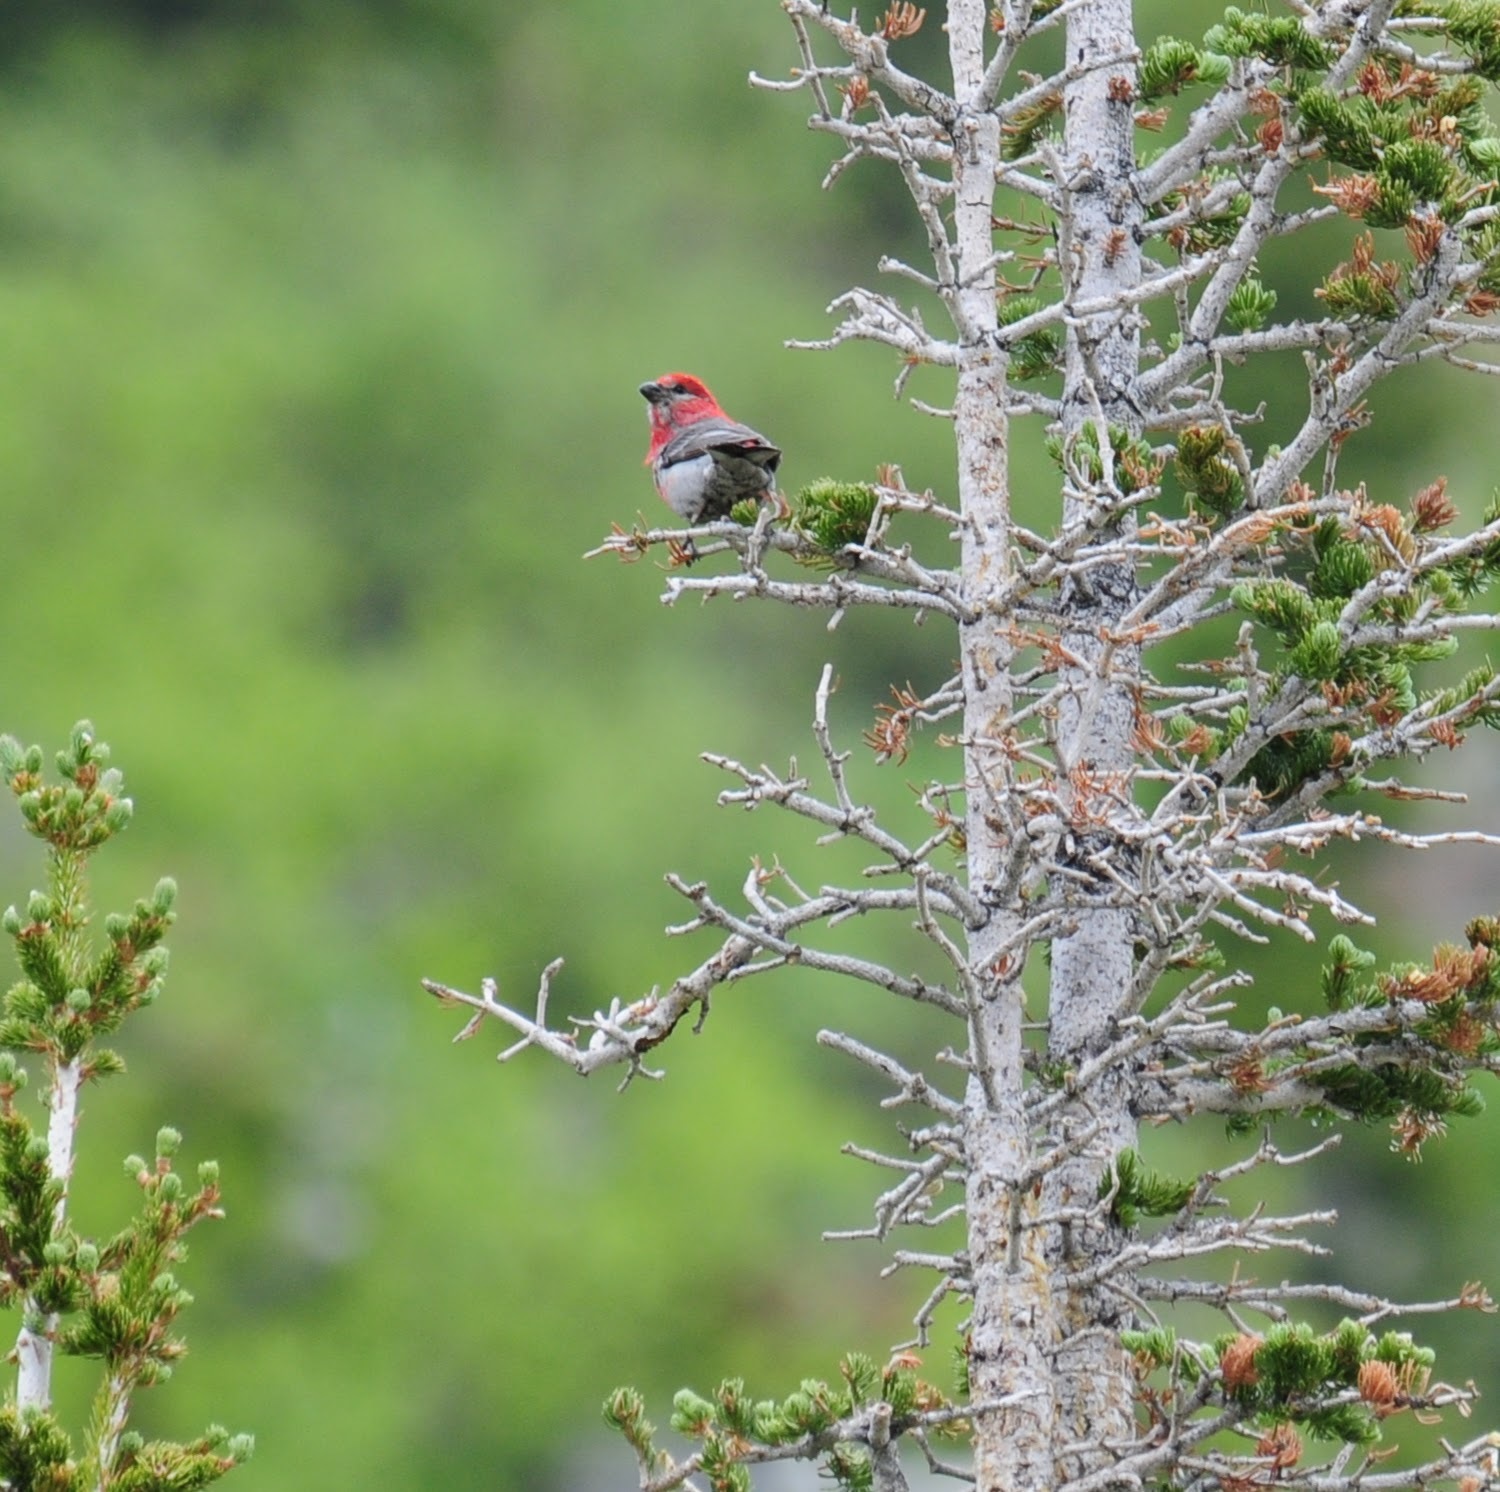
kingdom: Animalia
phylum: Chordata
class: Aves
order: Passeriformes
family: Fringillidae
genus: Pinicola
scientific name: Pinicola enucleator
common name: Pine grosbeak
